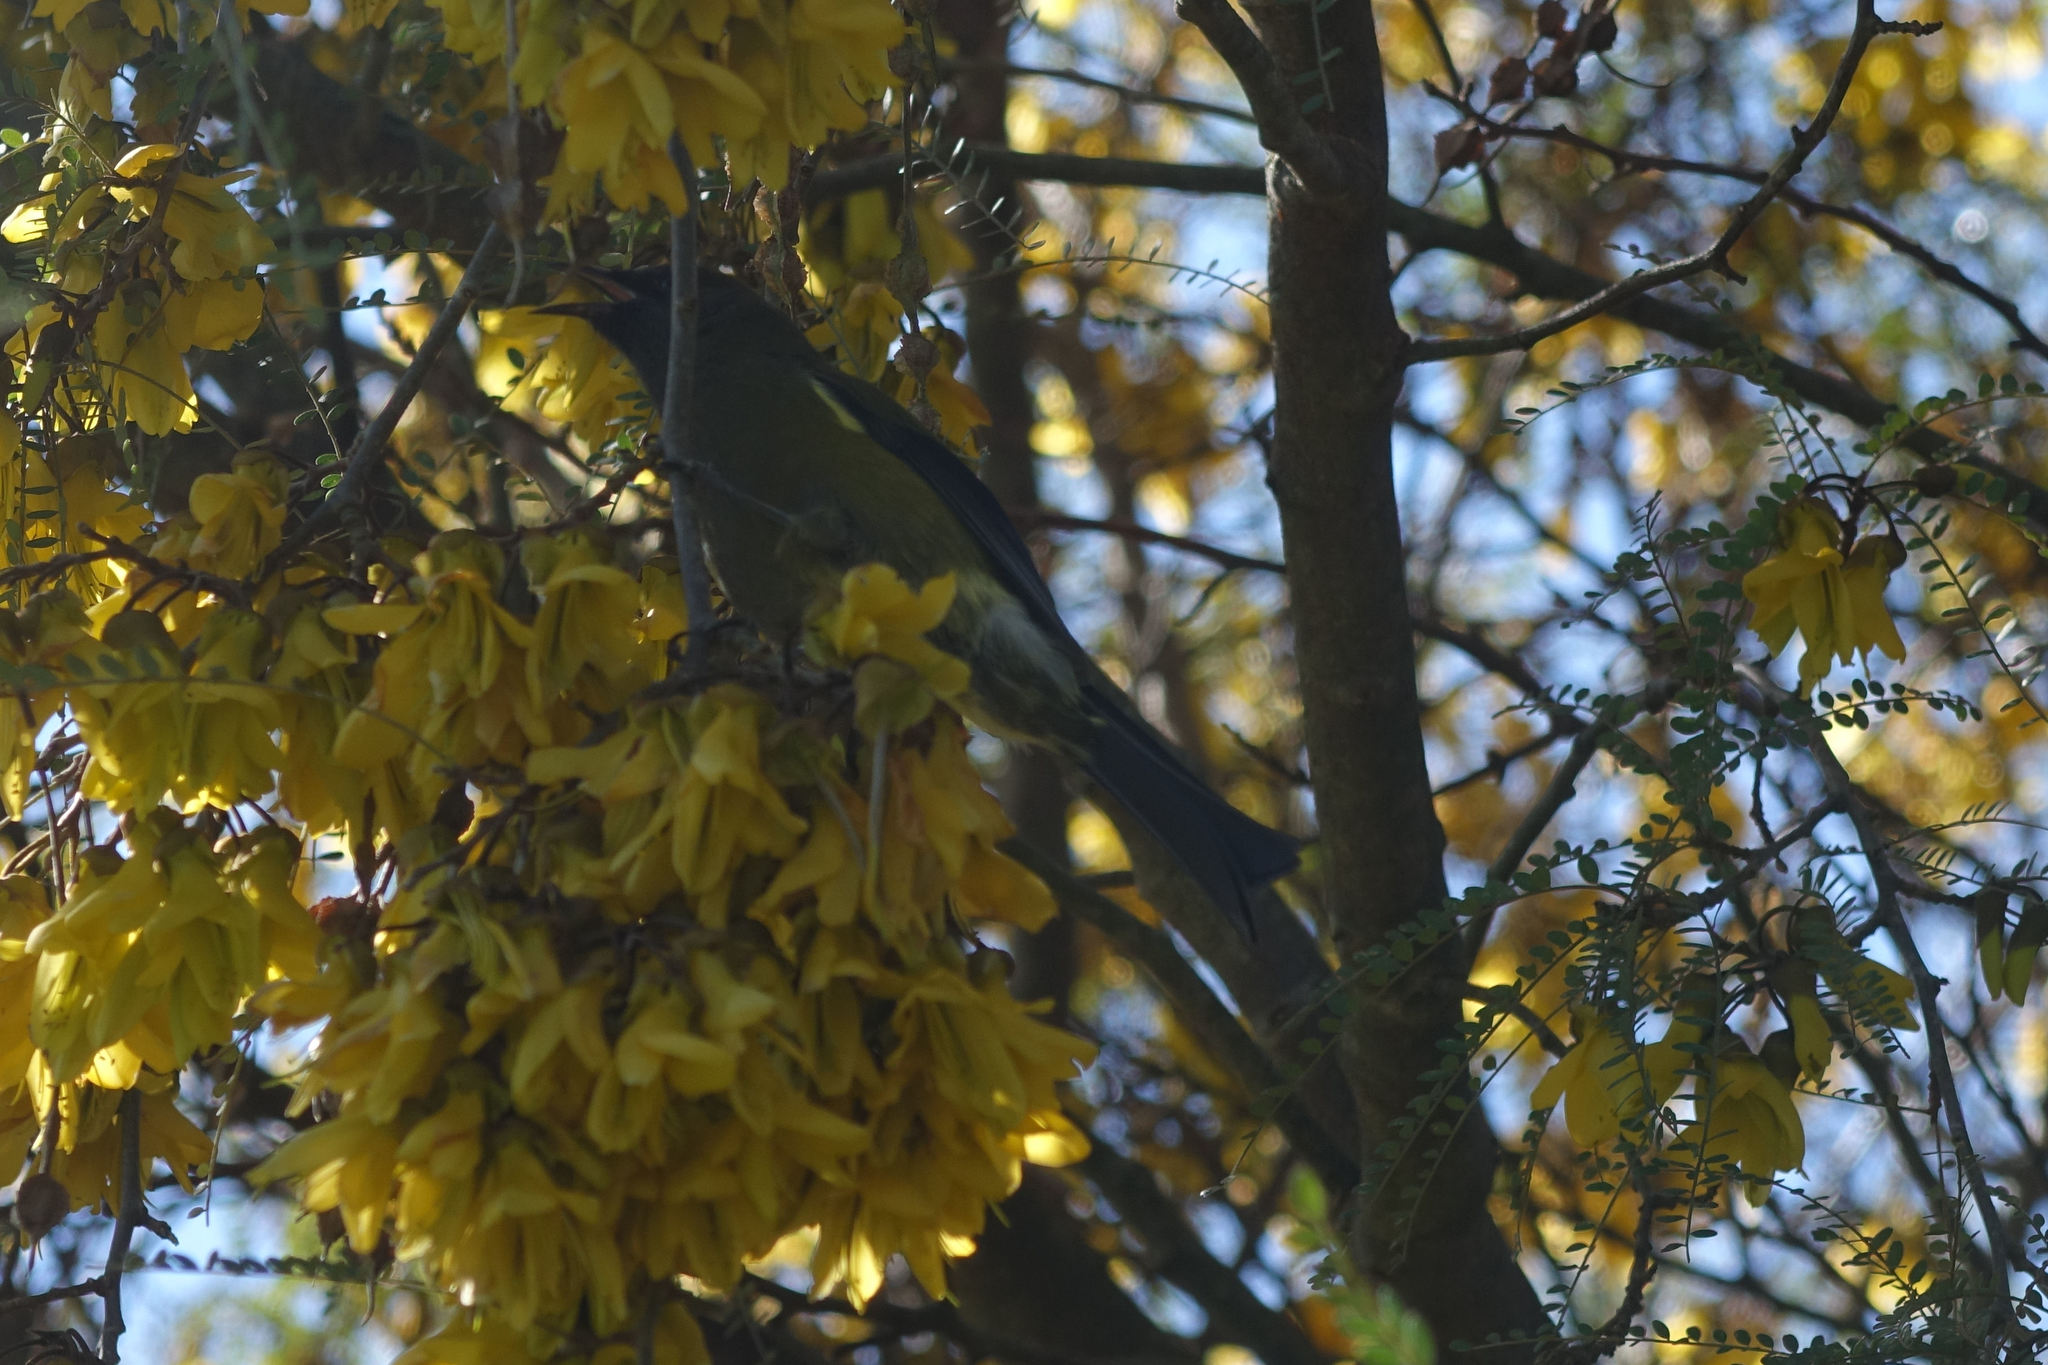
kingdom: Animalia
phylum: Chordata
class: Aves
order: Passeriformes
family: Meliphagidae
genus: Anthornis
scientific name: Anthornis melanura
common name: New zealand bellbird
